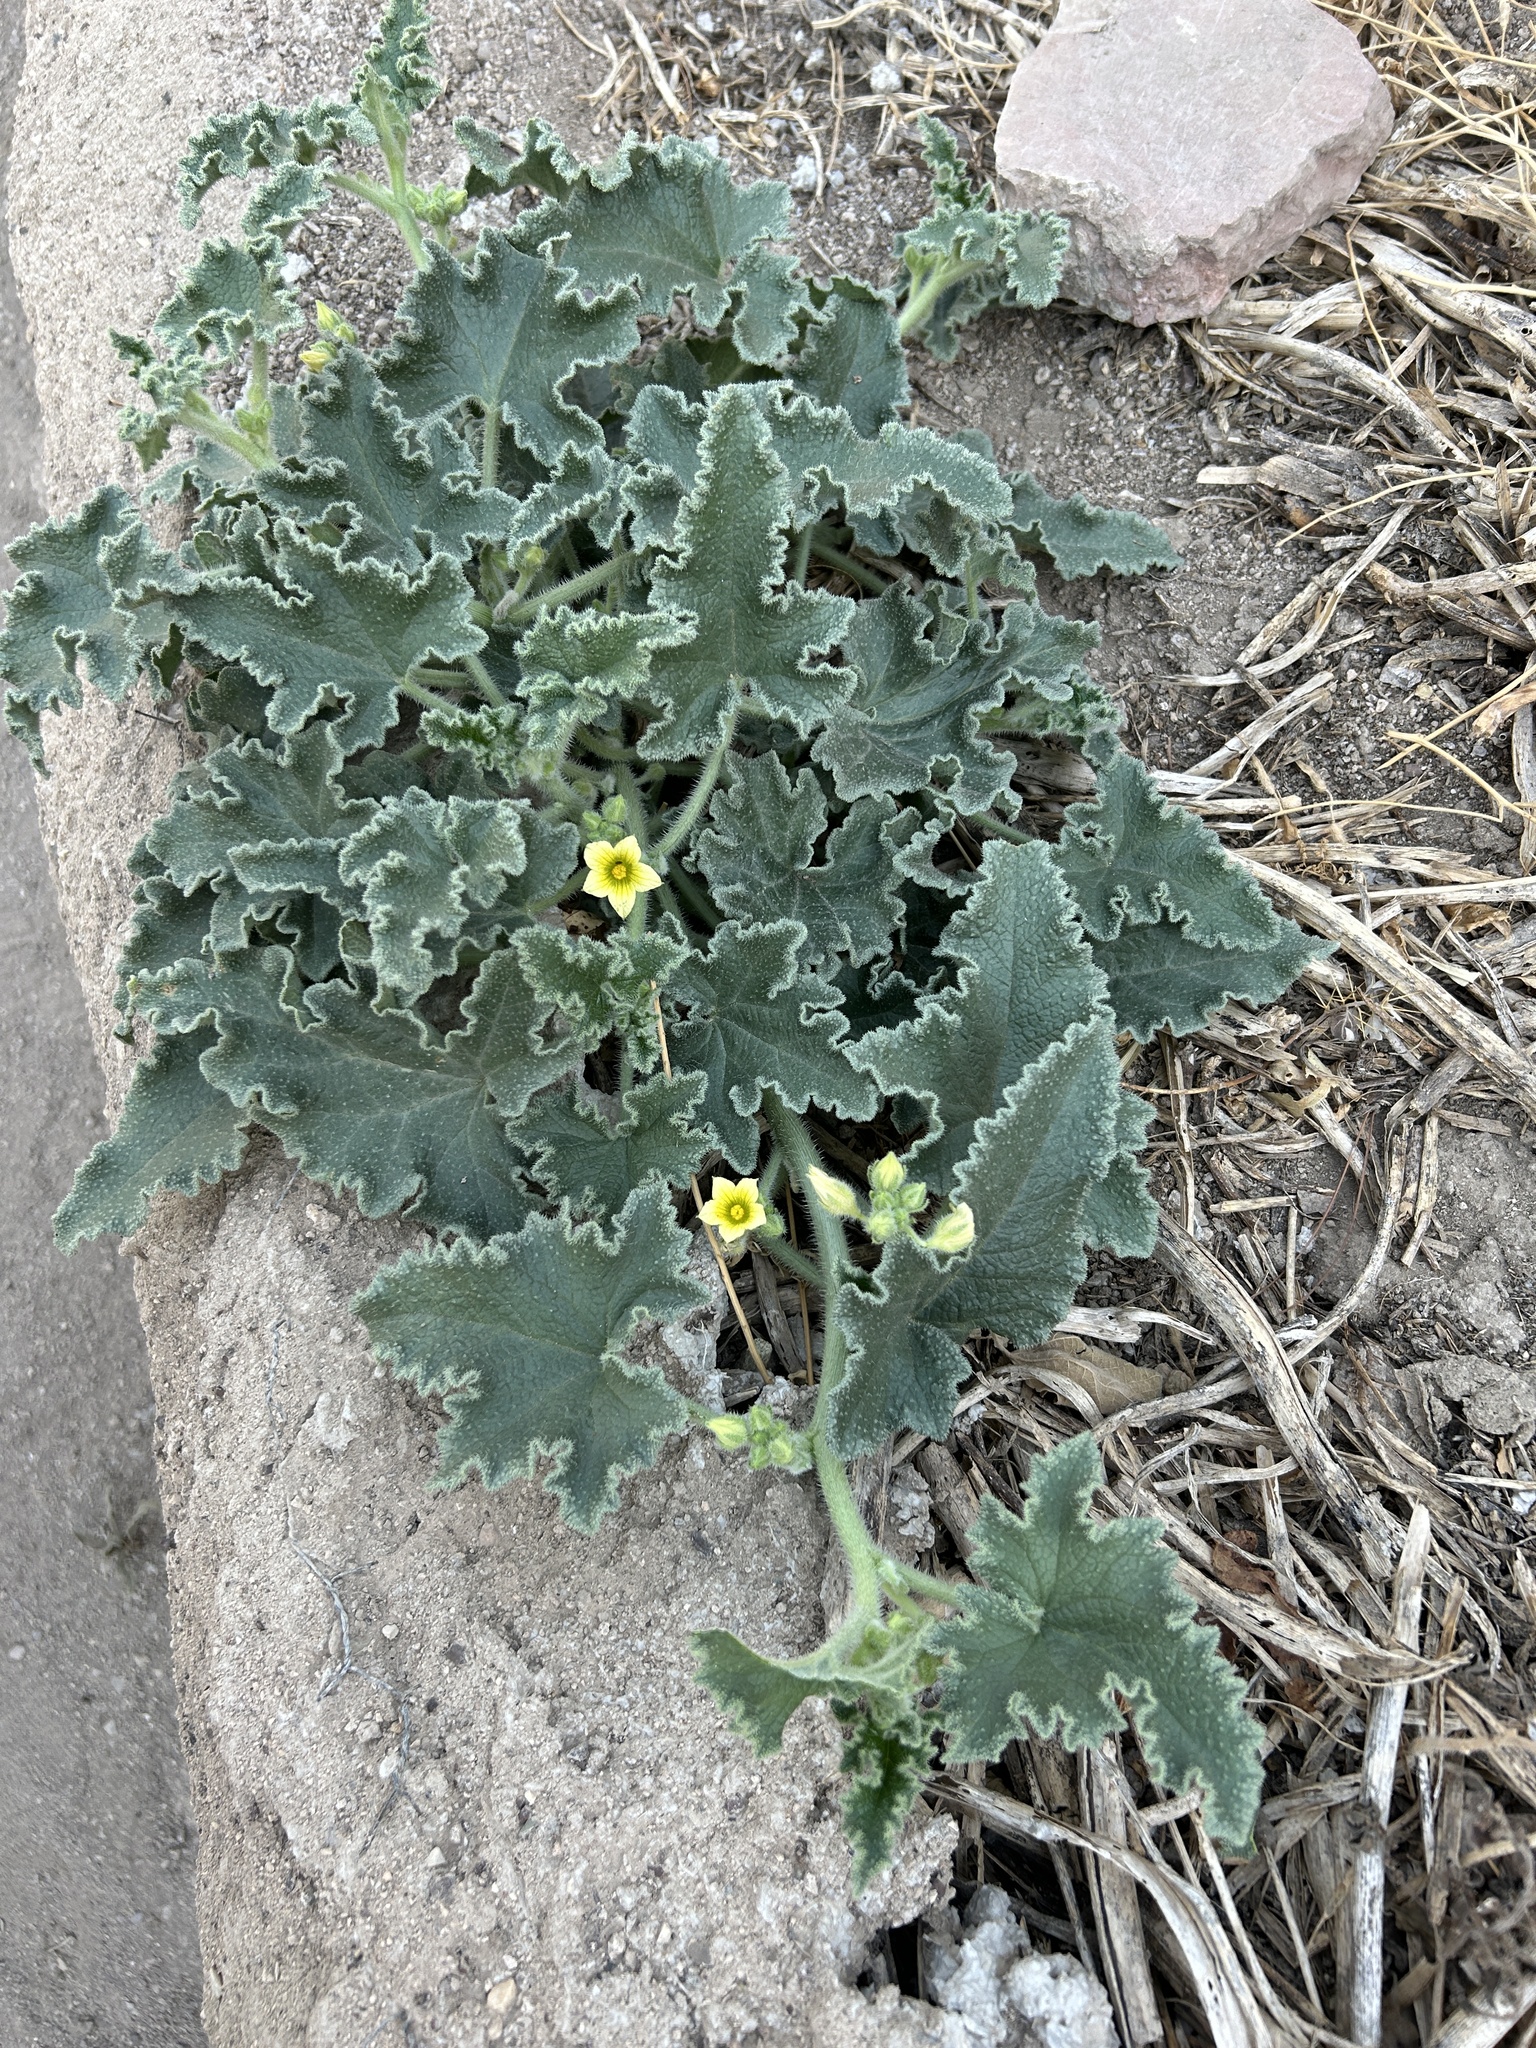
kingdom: Plantae
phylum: Tracheophyta
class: Magnoliopsida
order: Cucurbitales
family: Cucurbitaceae
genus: Ecballium
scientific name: Ecballium elaterium
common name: Squirting cucumber
